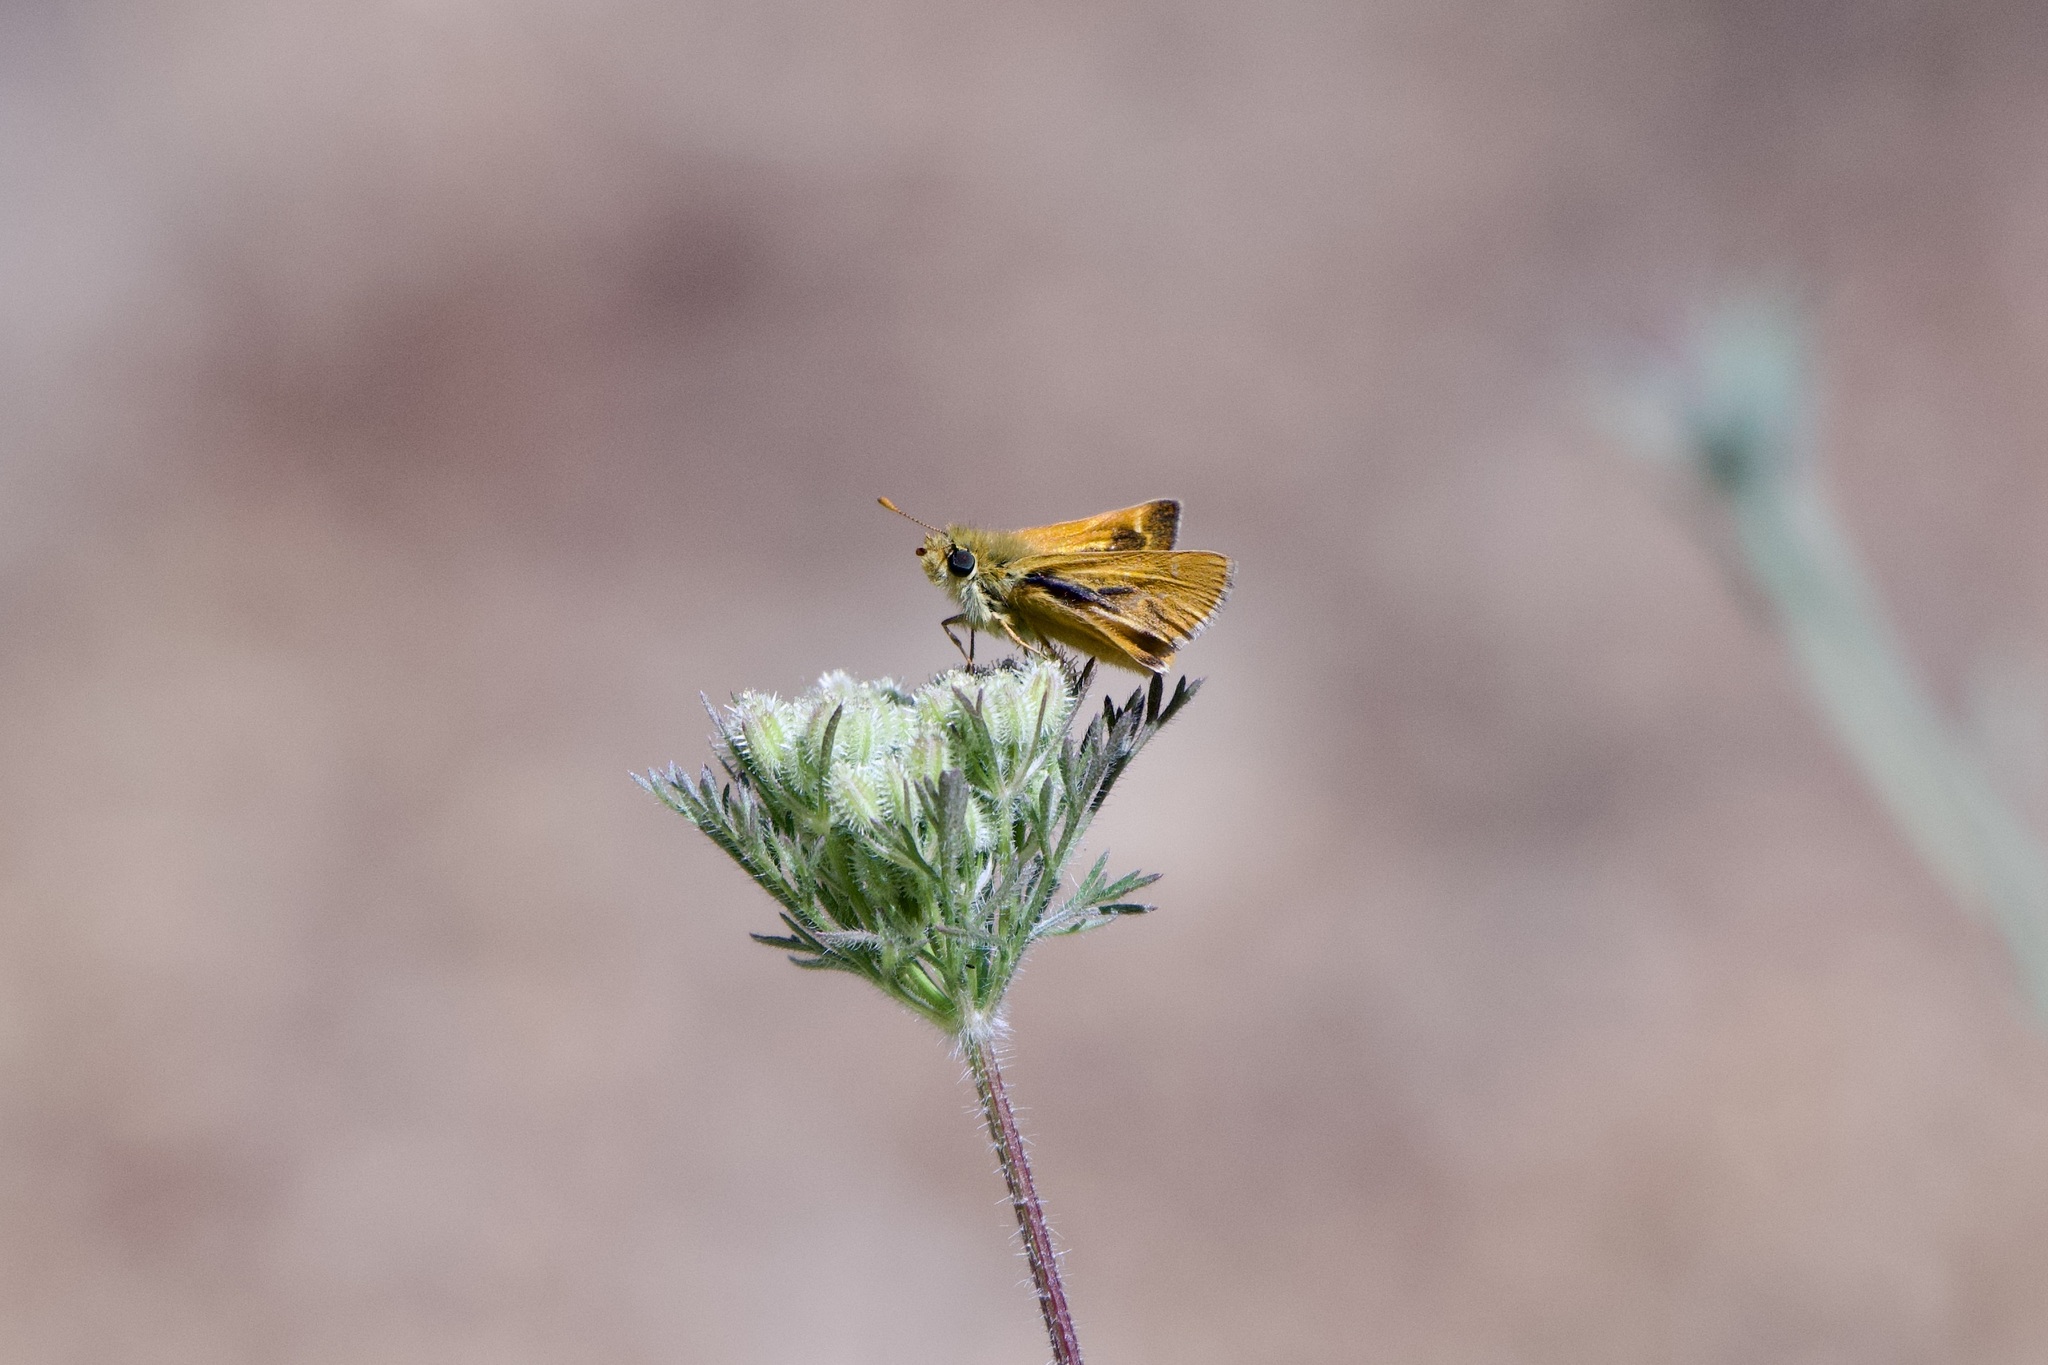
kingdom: Animalia
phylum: Arthropoda
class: Insecta
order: Lepidoptera
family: Hesperiidae
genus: Ochlodes
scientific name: Ochlodes agricola
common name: Rural skipper
